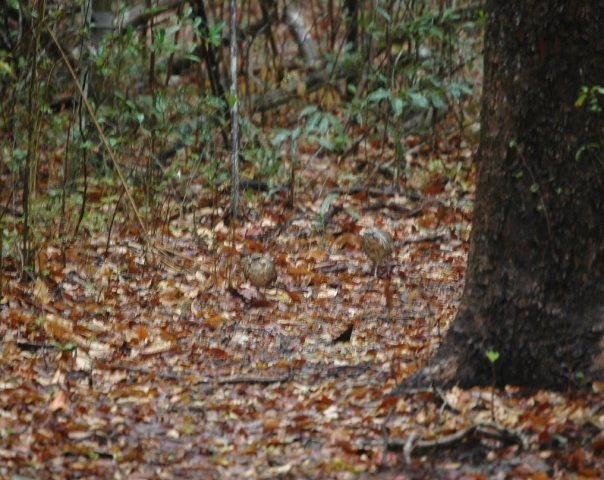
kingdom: Animalia
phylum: Chordata
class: Aves
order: Mesitornithiformes
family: Mesitornithidae
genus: Mesitornis
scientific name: Mesitornis variegatus
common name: White-breasted mesite
